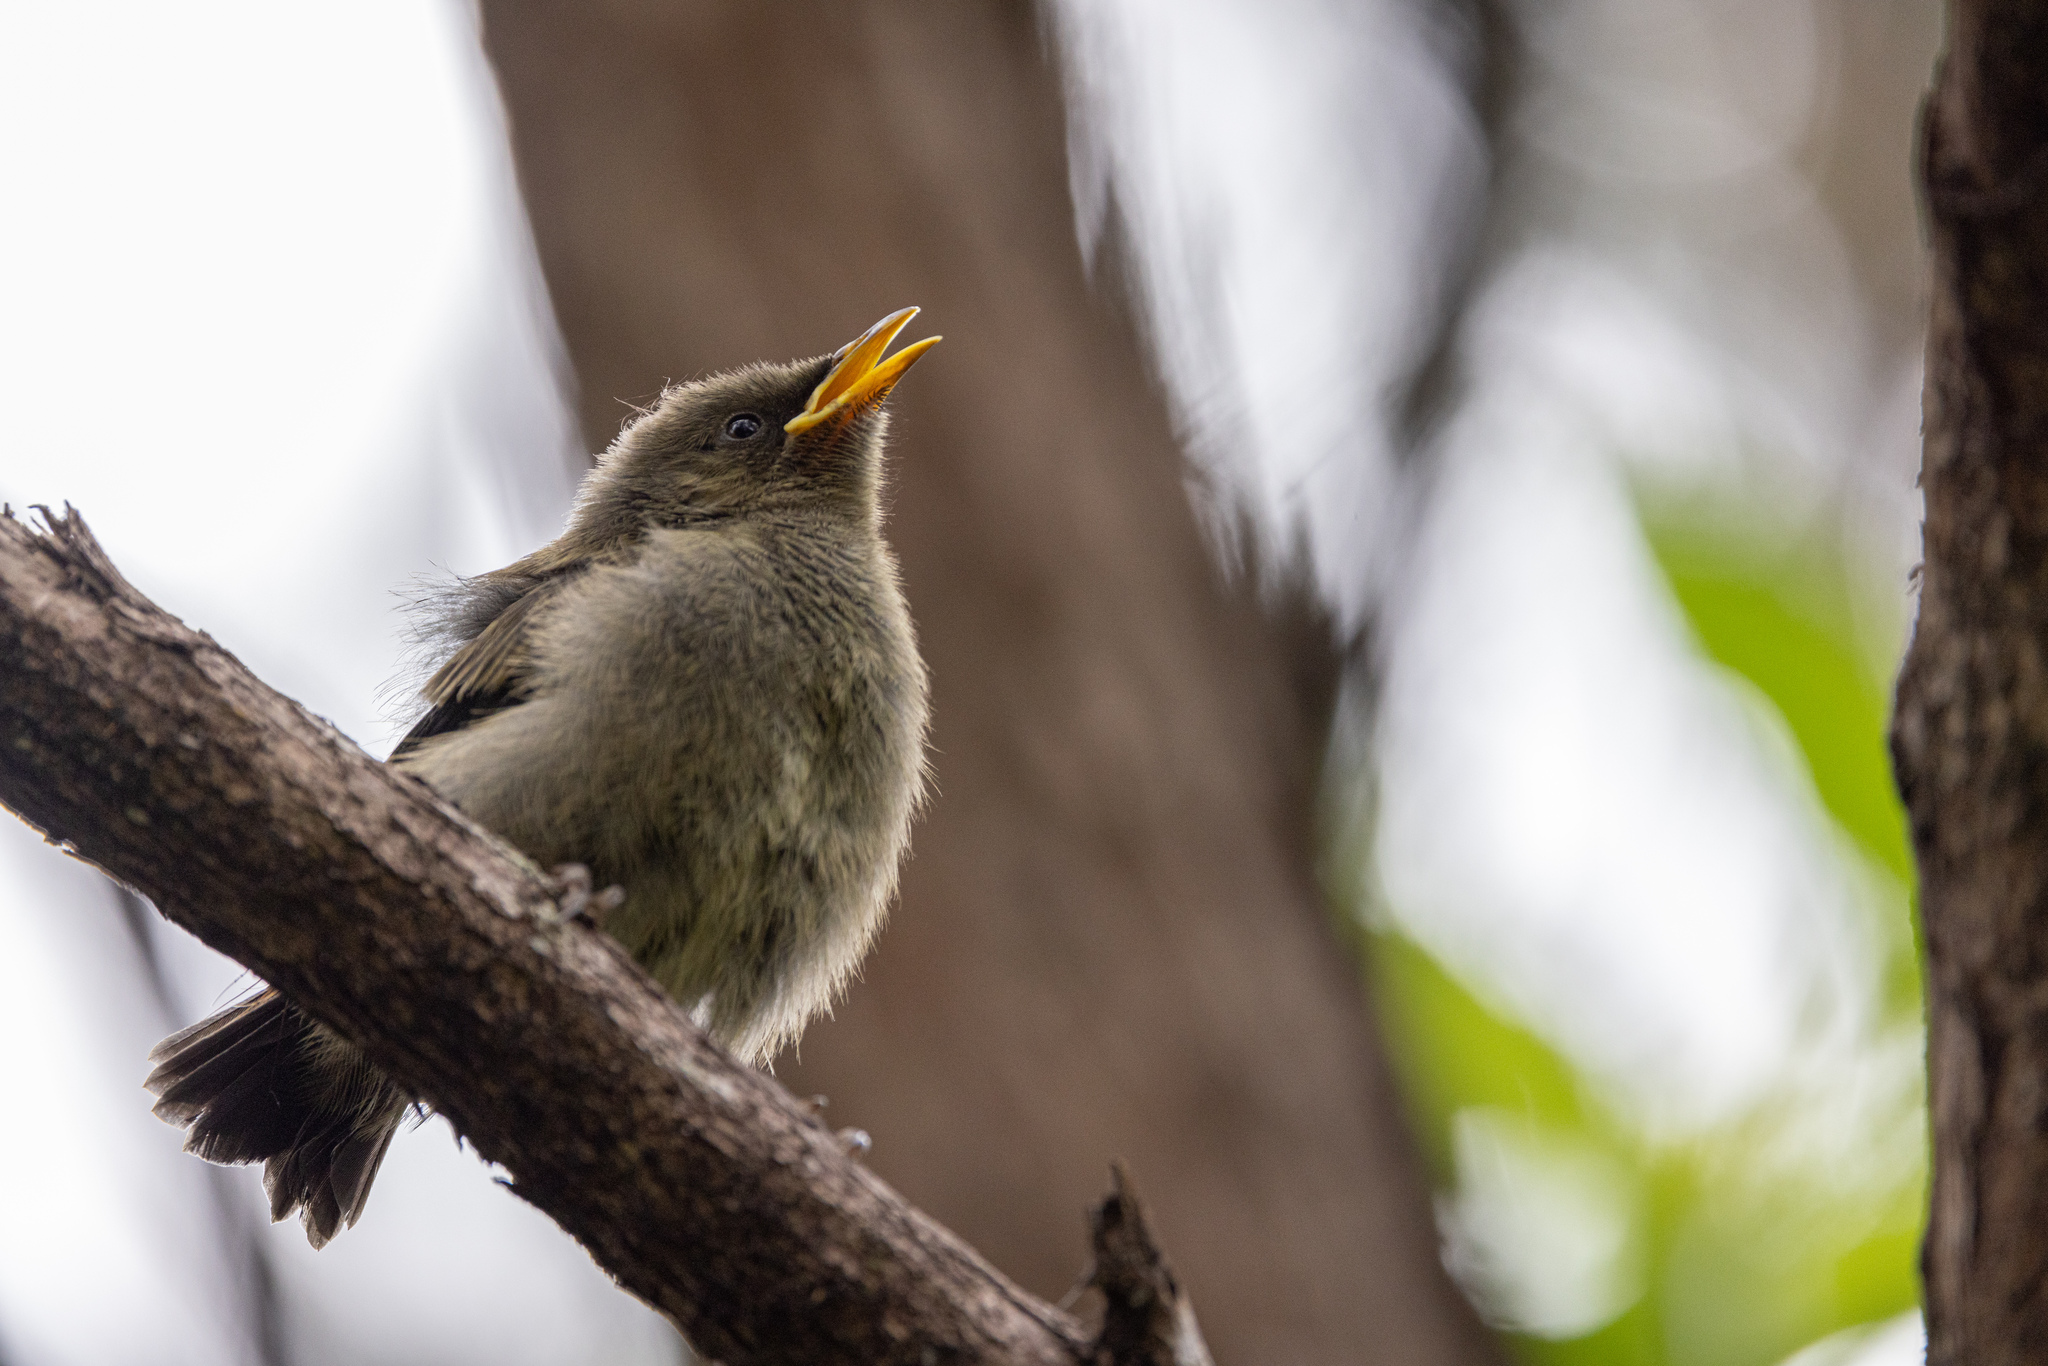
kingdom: Animalia
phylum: Chordata
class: Aves
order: Passeriformes
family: Meliphagidae
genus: Anthornis
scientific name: Anthornis melanura
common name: New zealand bellbird
